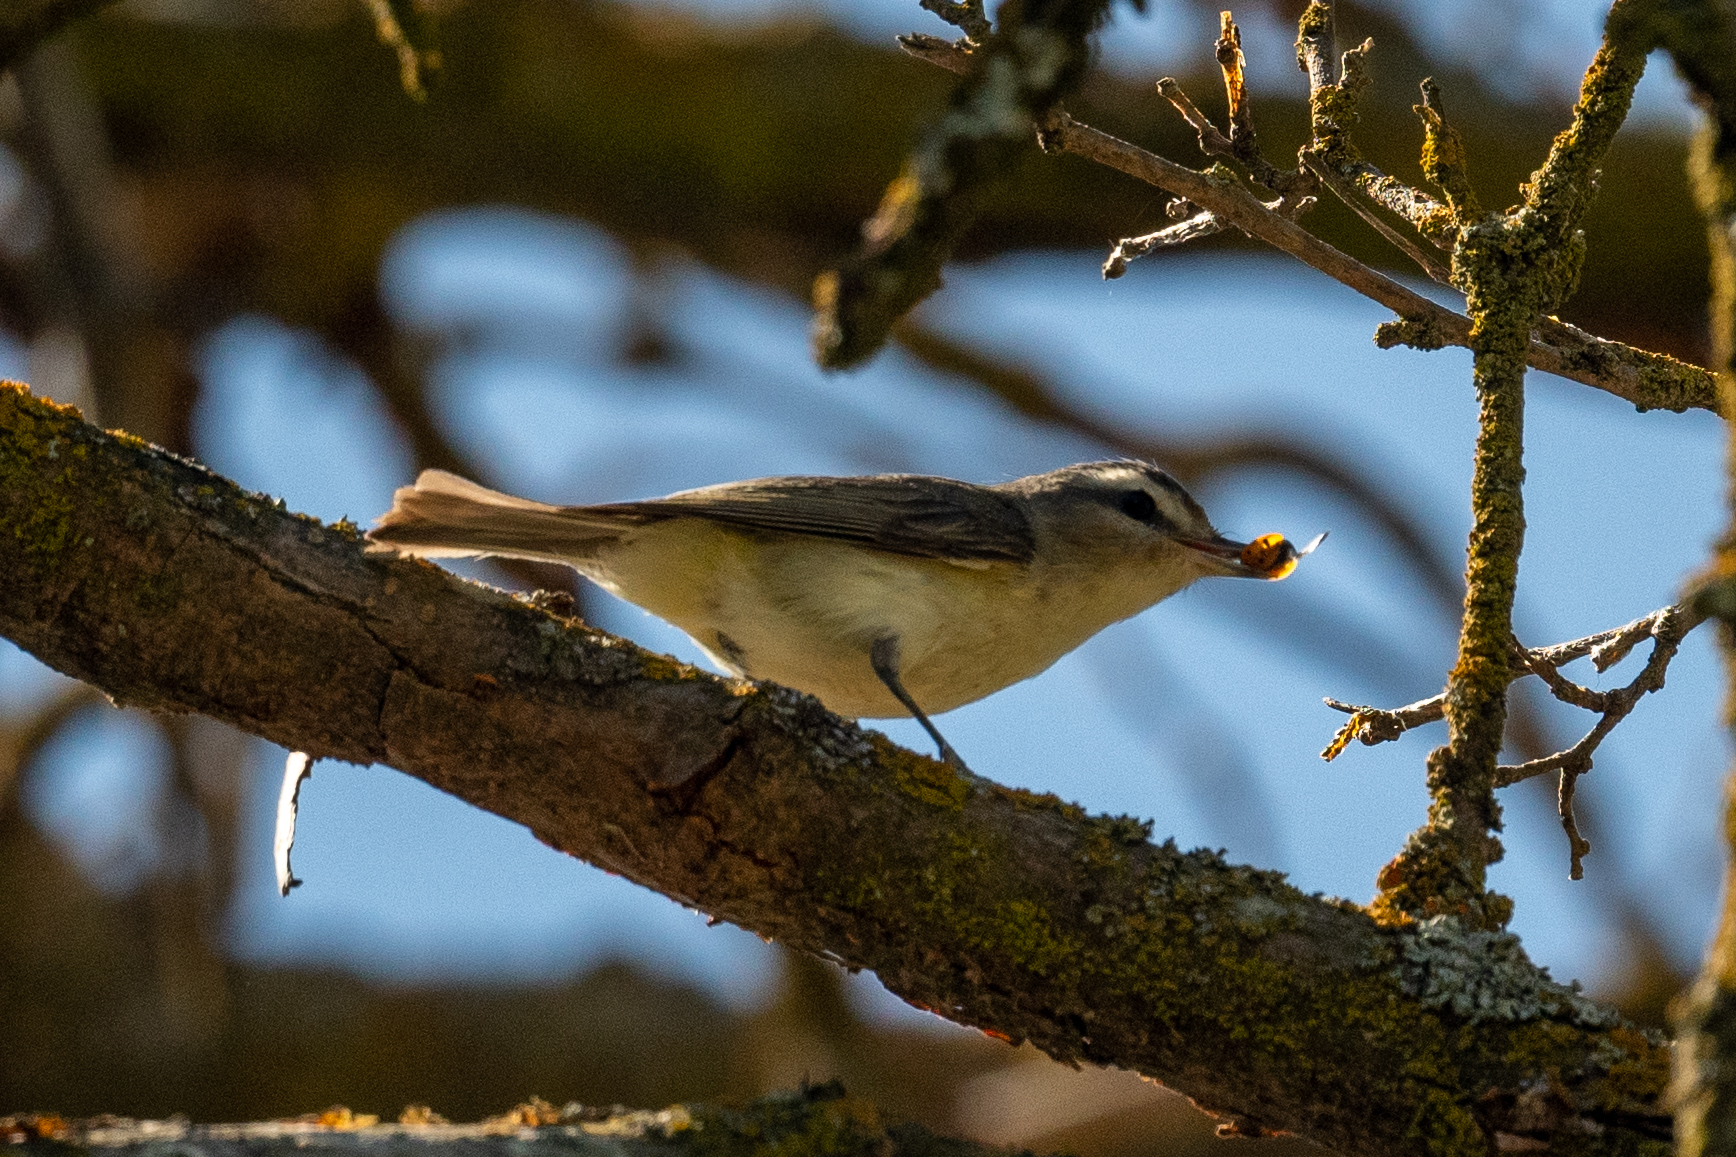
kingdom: Animalia
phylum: Chordata
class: Aves
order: Passeriformes
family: Vireonidae
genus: Vireo
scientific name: Vireo gilvus
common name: Warbling vireo
